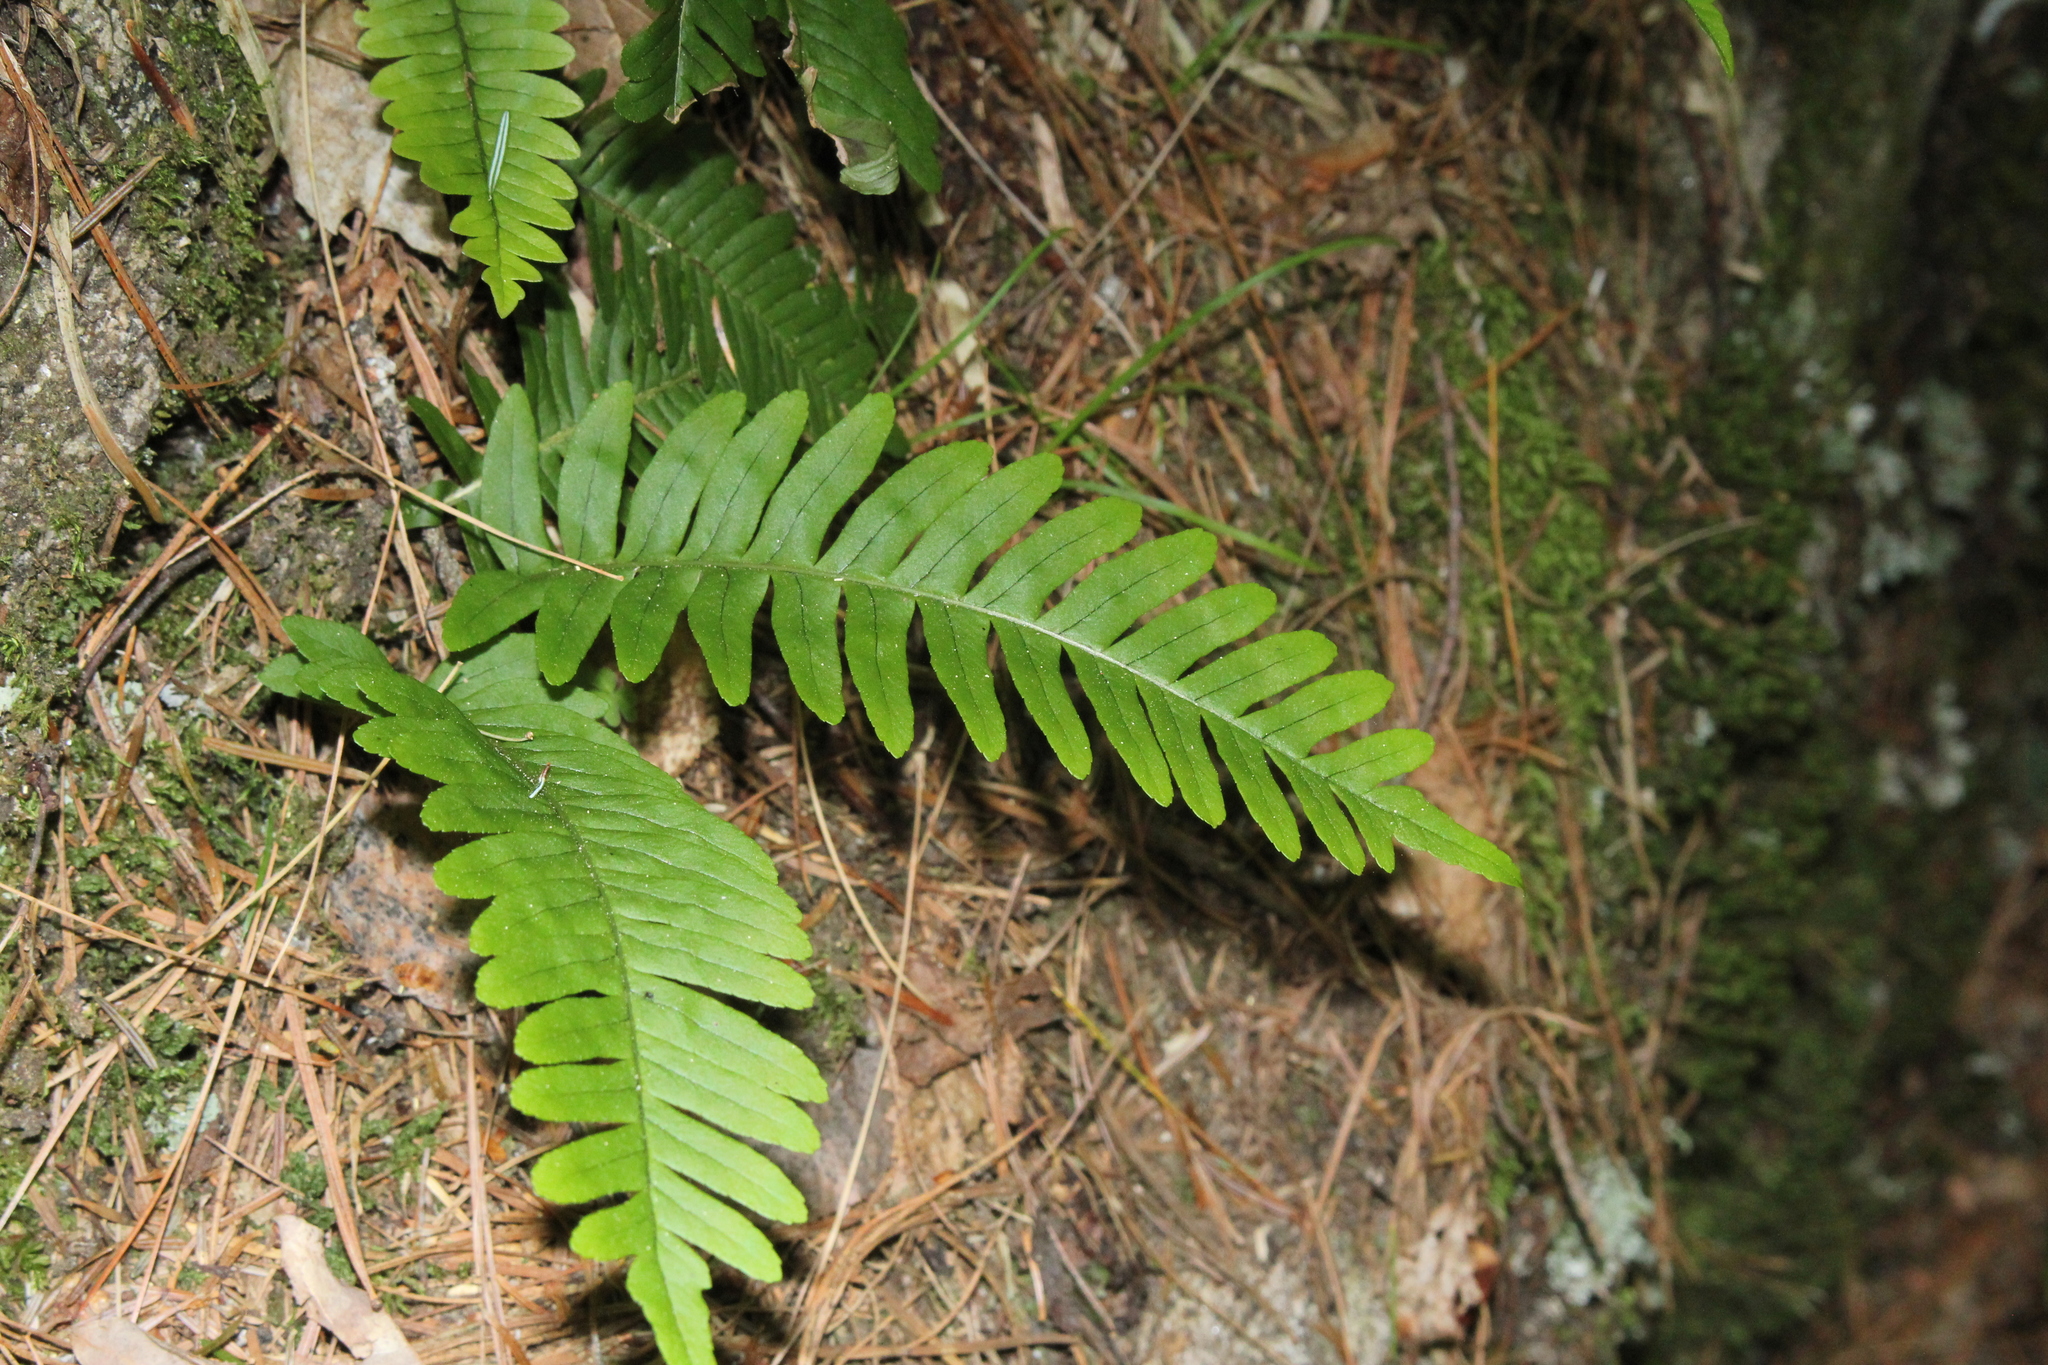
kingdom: Plantae
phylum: Tracheophyta
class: Polypodiopsida
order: Polypodiales
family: Polypodiaceae
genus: Polypodium
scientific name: Polypodium virginianum
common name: American wall fern
